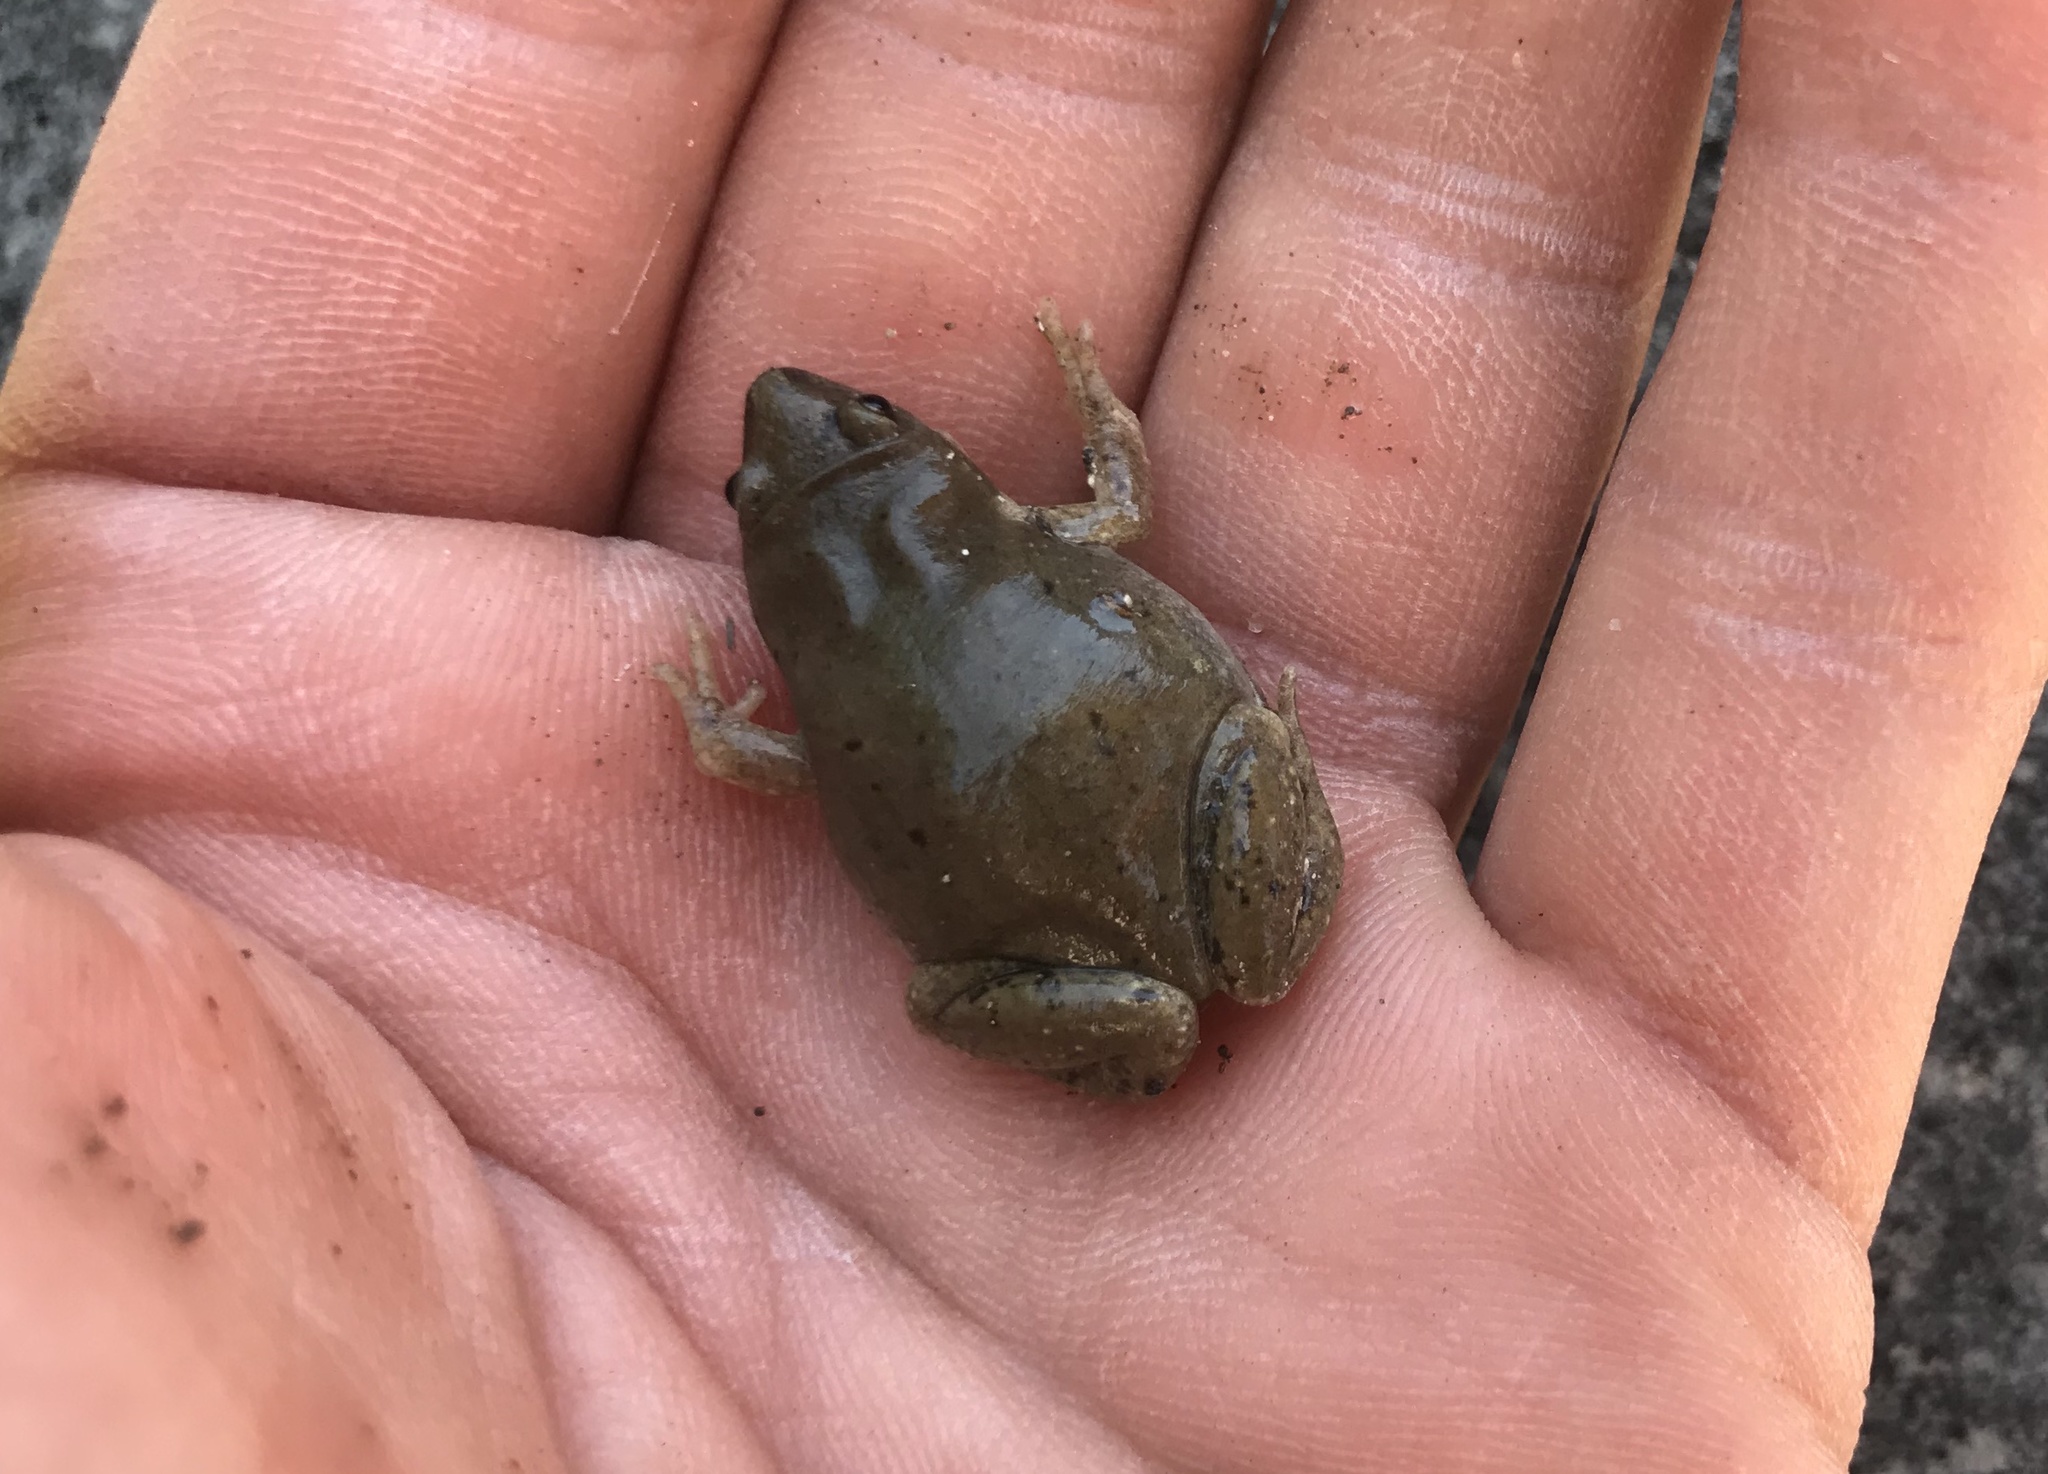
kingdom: Animalia
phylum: Chordata
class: Amphibia
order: Anura
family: Microhylidae
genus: Gastrophryne
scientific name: Gastrophryne olivacea
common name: Great plains narrow-mouthed toad
